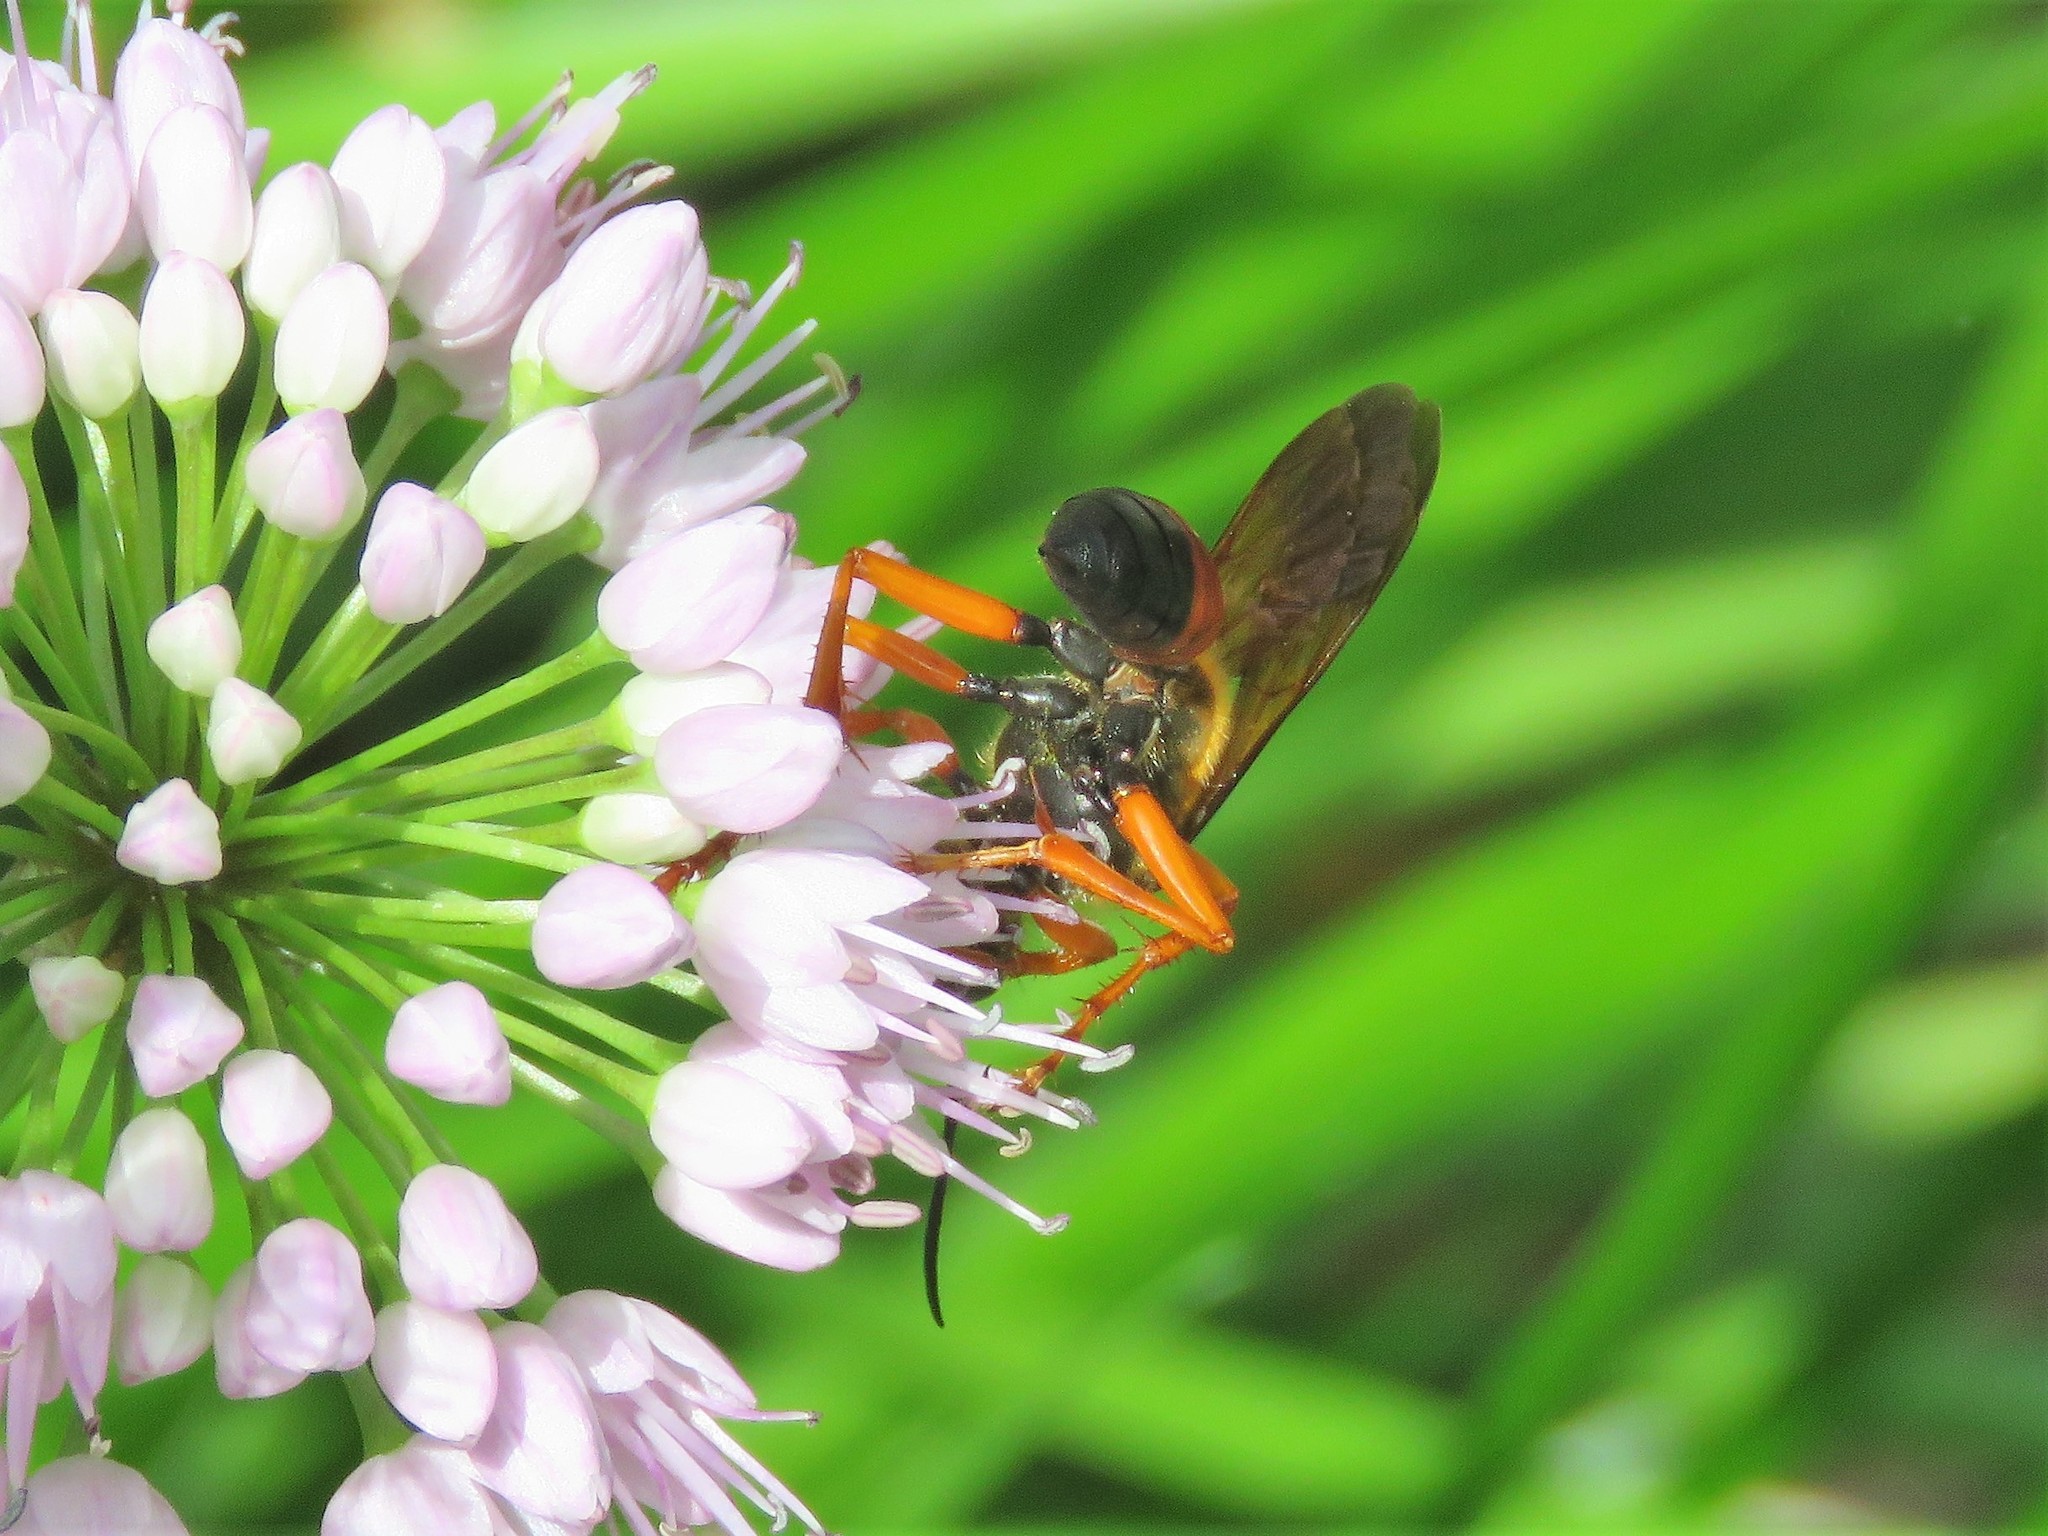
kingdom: Animalia
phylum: Arthropoda
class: Insecta
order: Hymenoptera
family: Sphecidae
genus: Sphex
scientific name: Sphex ichneumoneus
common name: Great golden digger wasp
